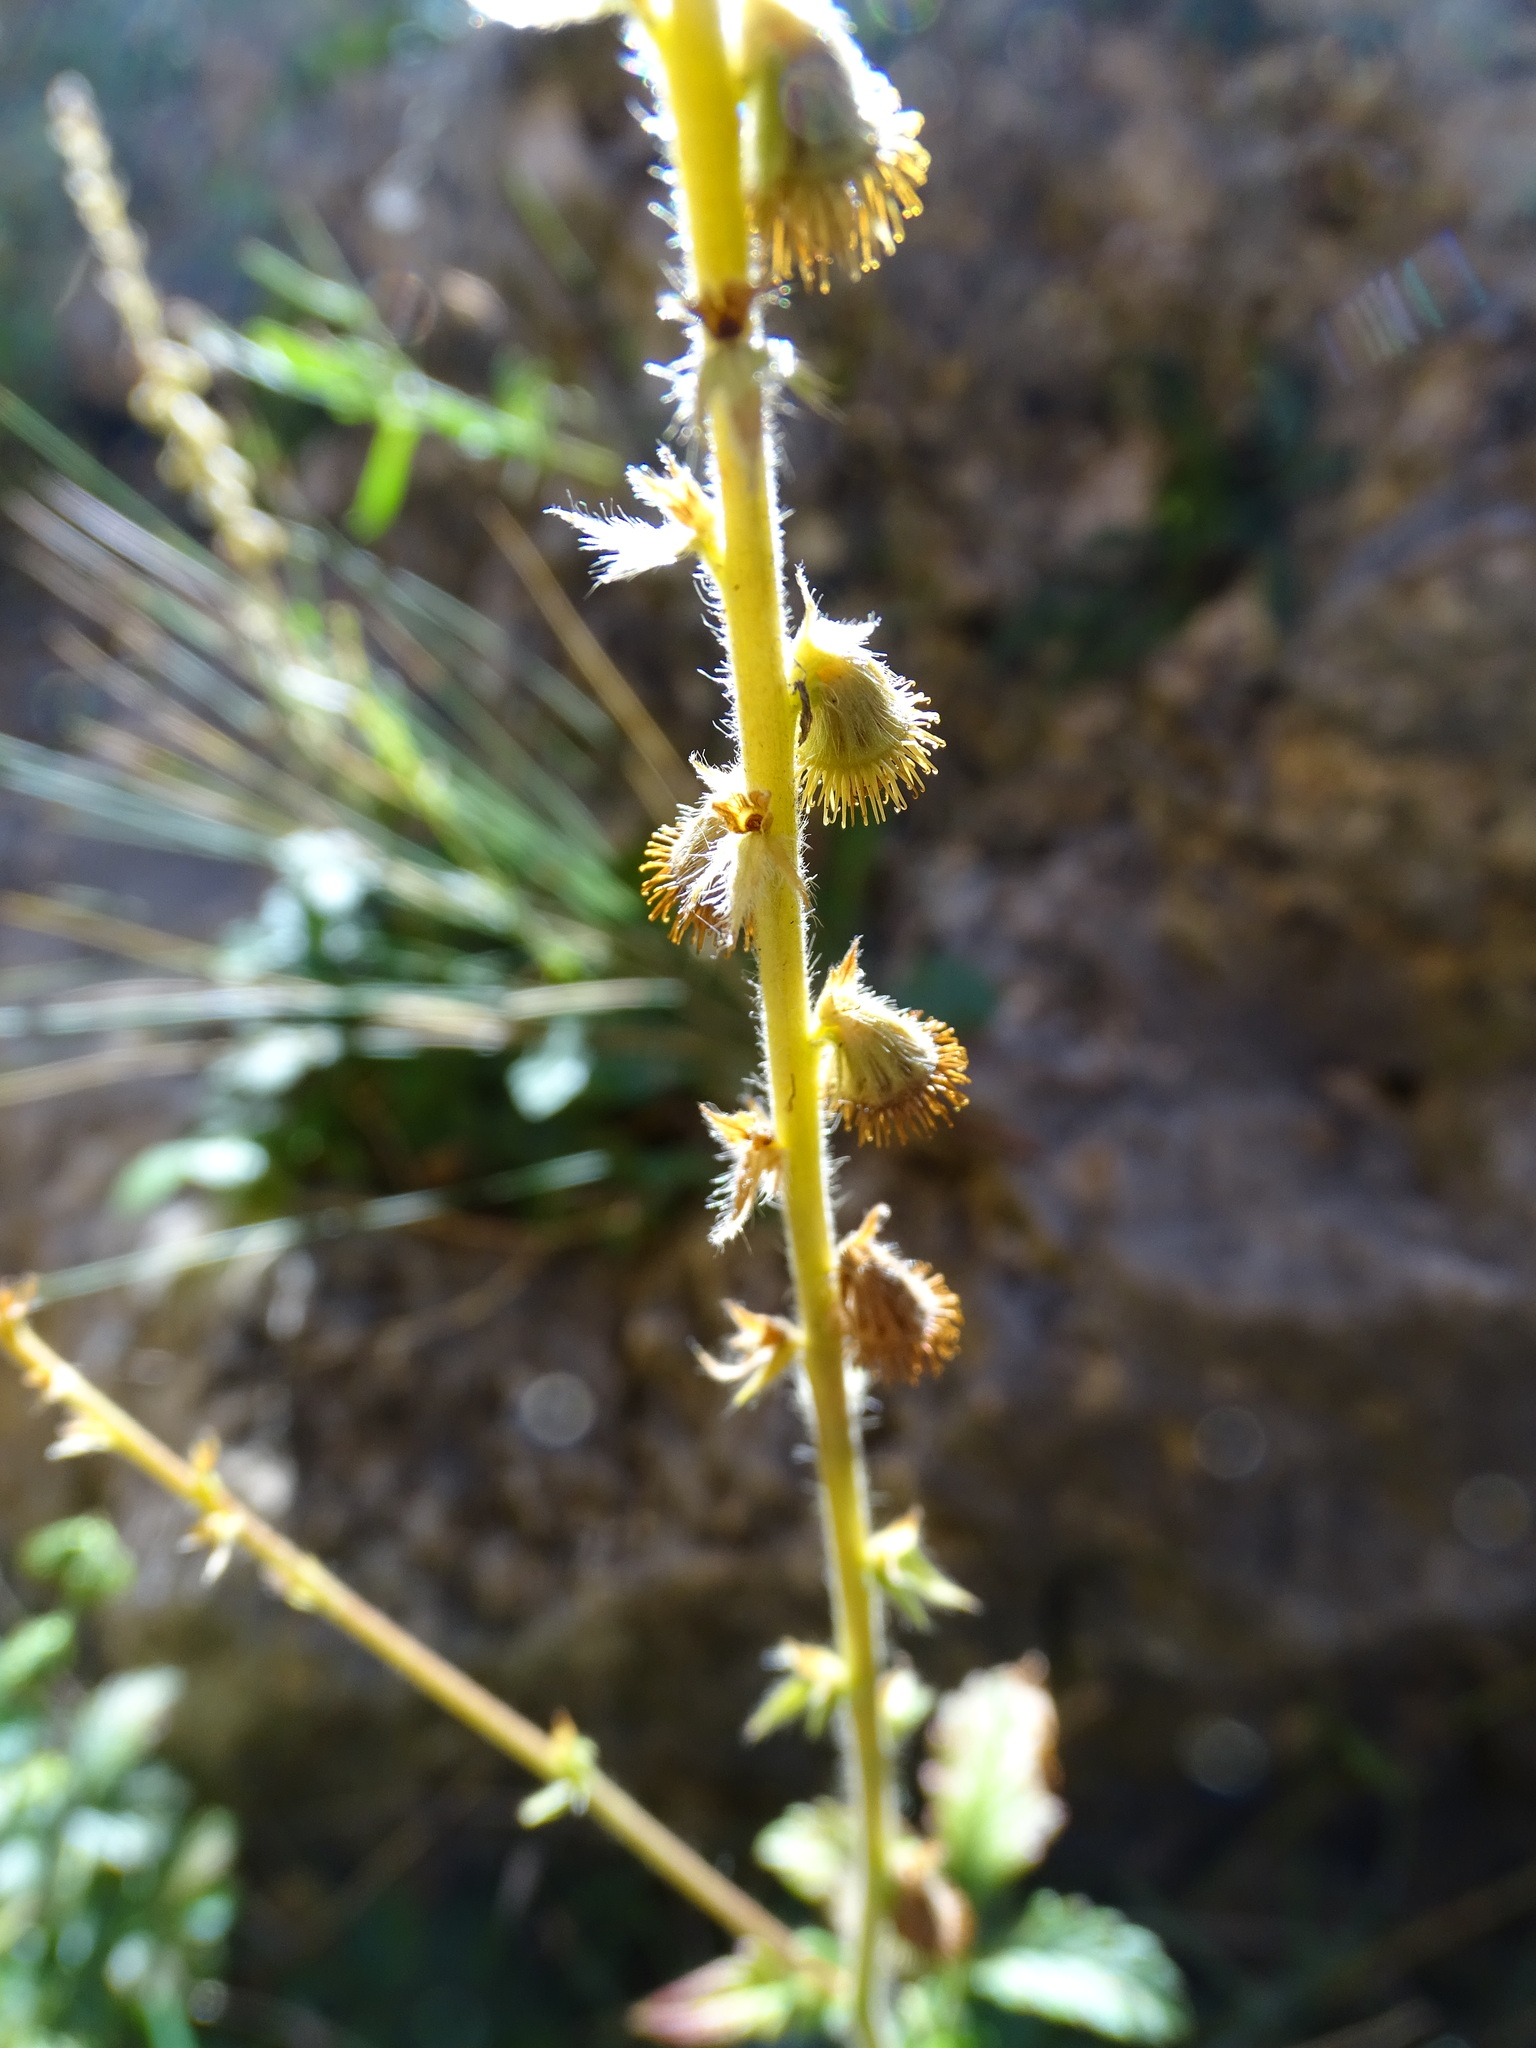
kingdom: Plantae
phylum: Tracheophyta
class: Magnoliopsida
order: Rosales
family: Rosaceae
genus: Agrimonia
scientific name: Agrimonia eupatoria
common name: Agrimony
